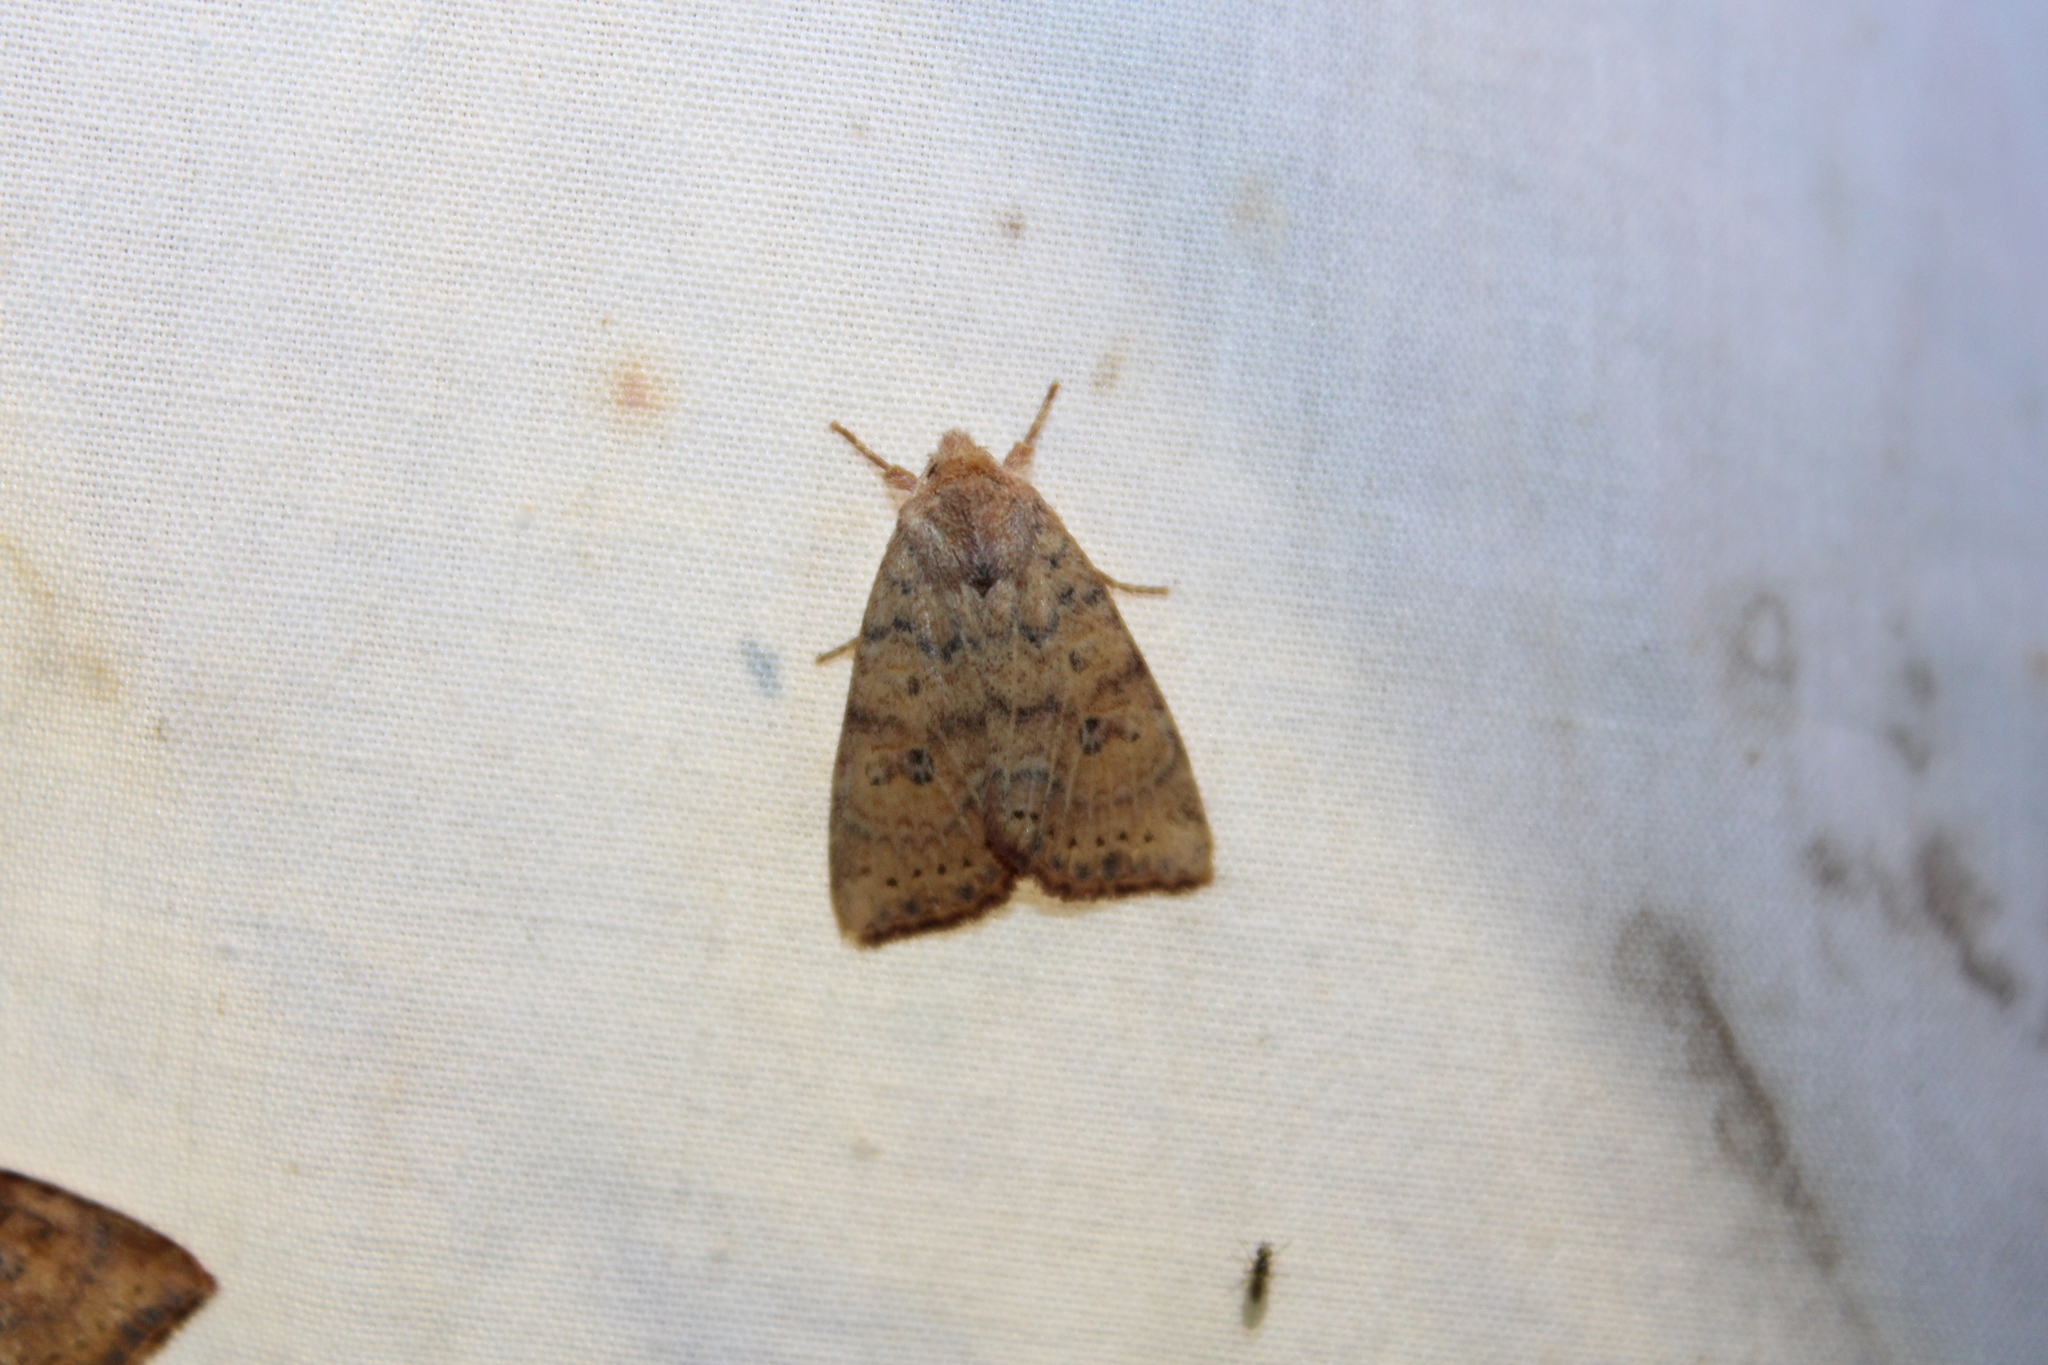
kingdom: Animalia
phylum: Arthropoda
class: Insecta
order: Lepidoptera
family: Noctuidae
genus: Anathix
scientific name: Anathix ralla
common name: Dotted sallow
